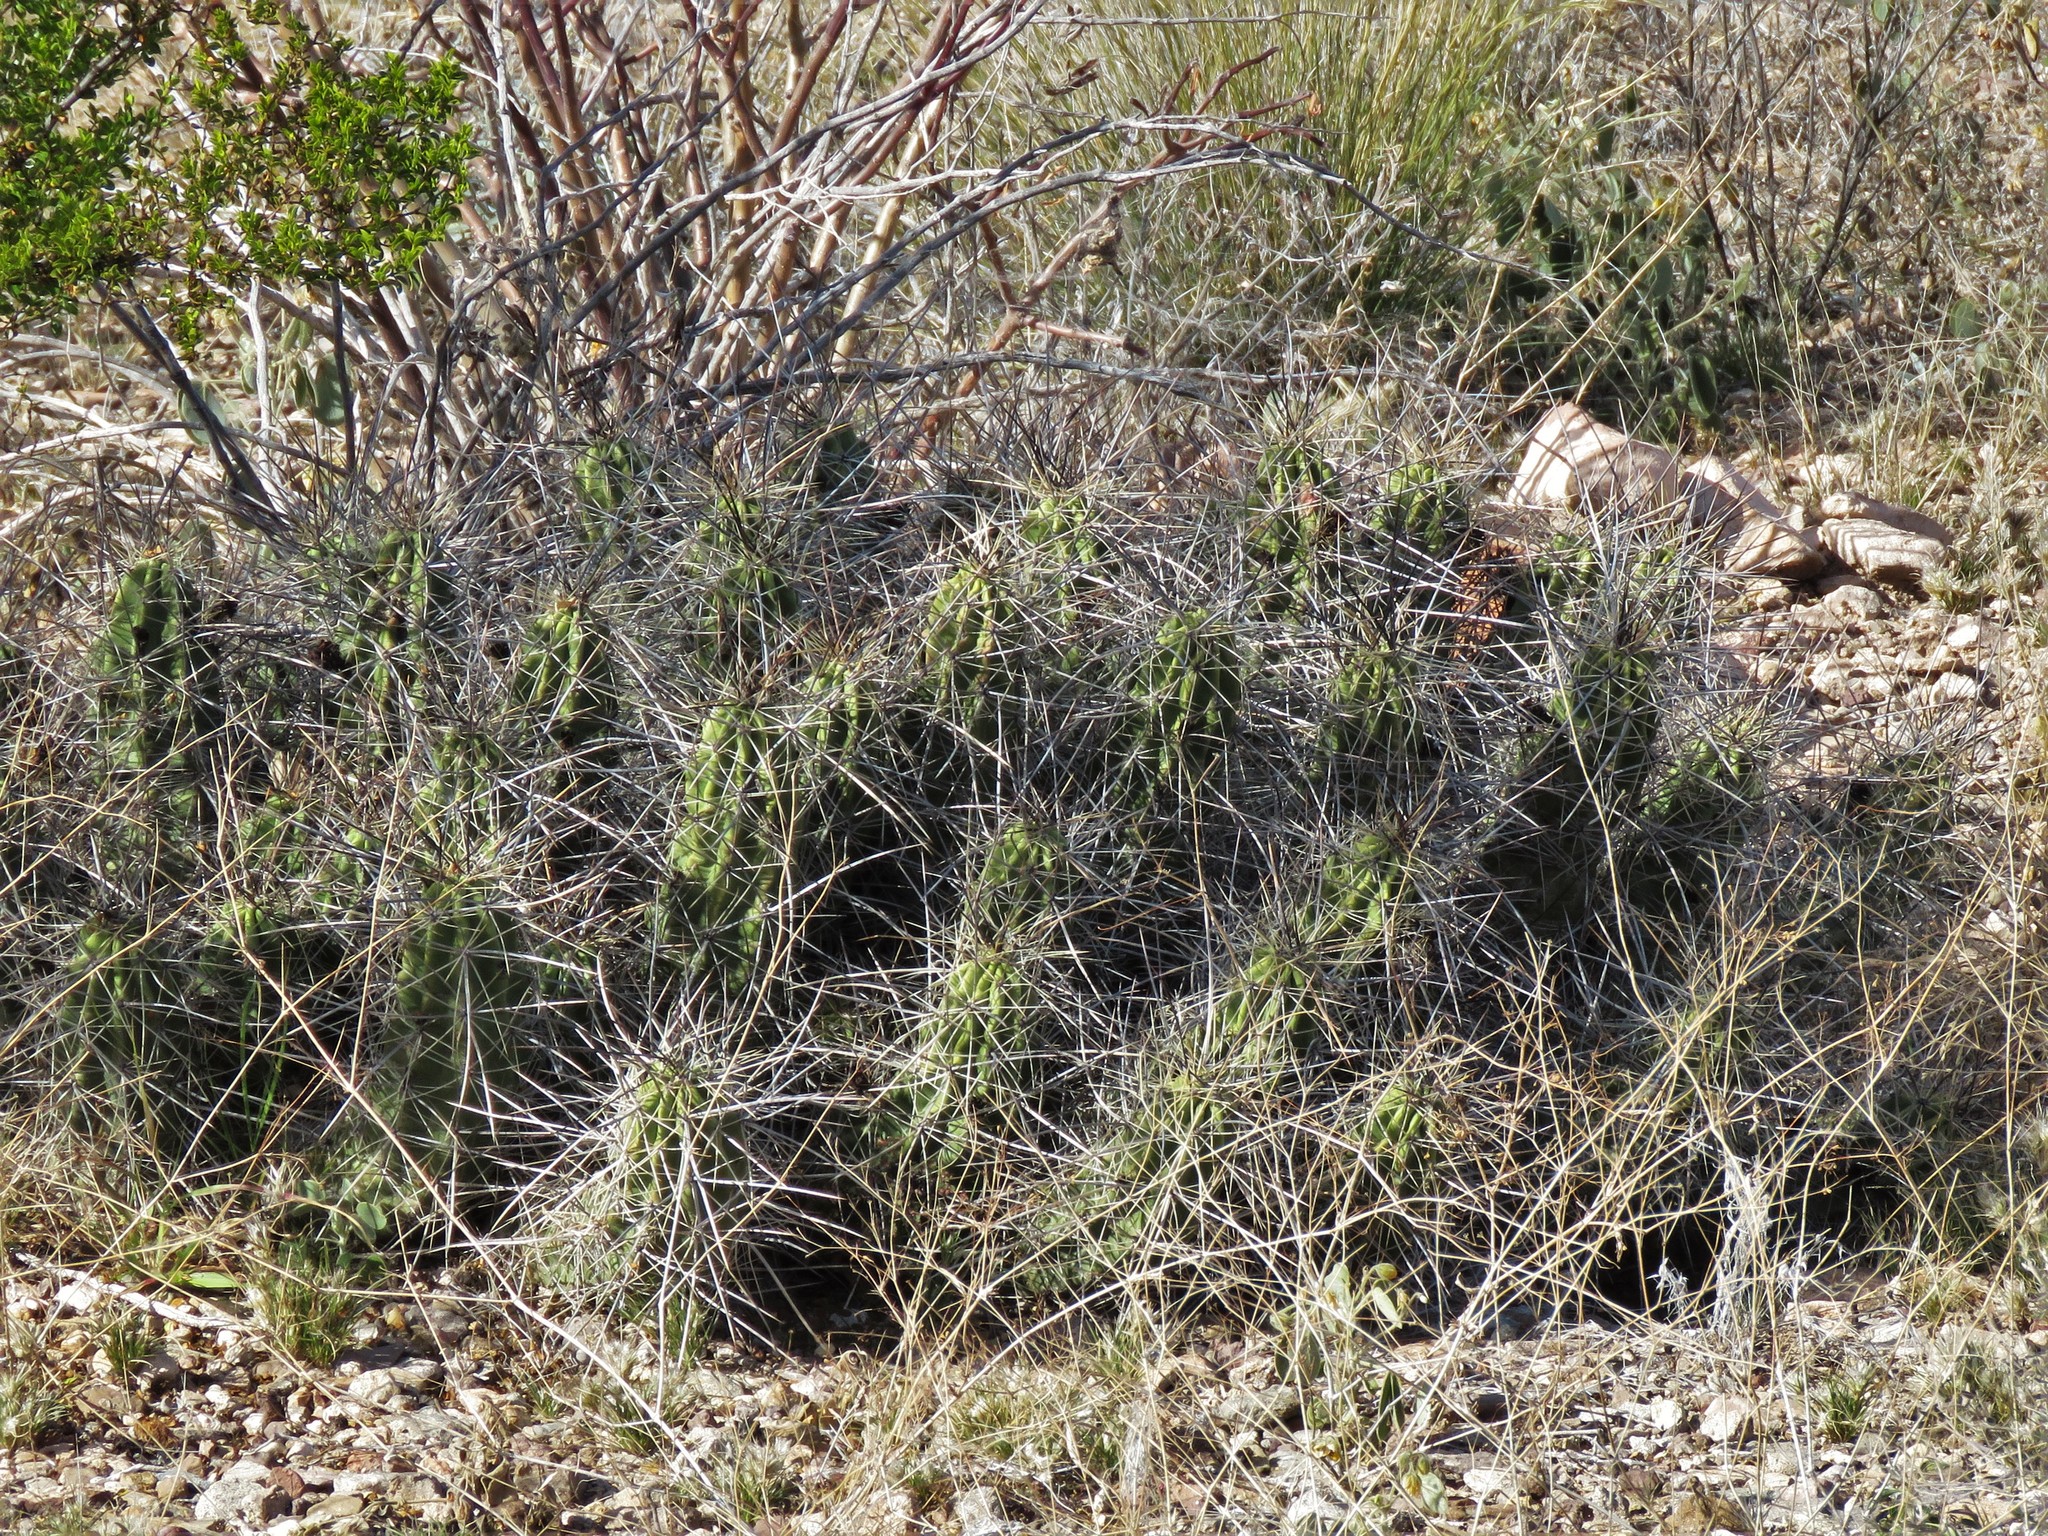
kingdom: Plantae
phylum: Tracheophyta
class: Magnoliopsida
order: Caryophyllales
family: Cactaceae
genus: Echinocereus
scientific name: Echinocereus enneacanthus
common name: Pitaya
